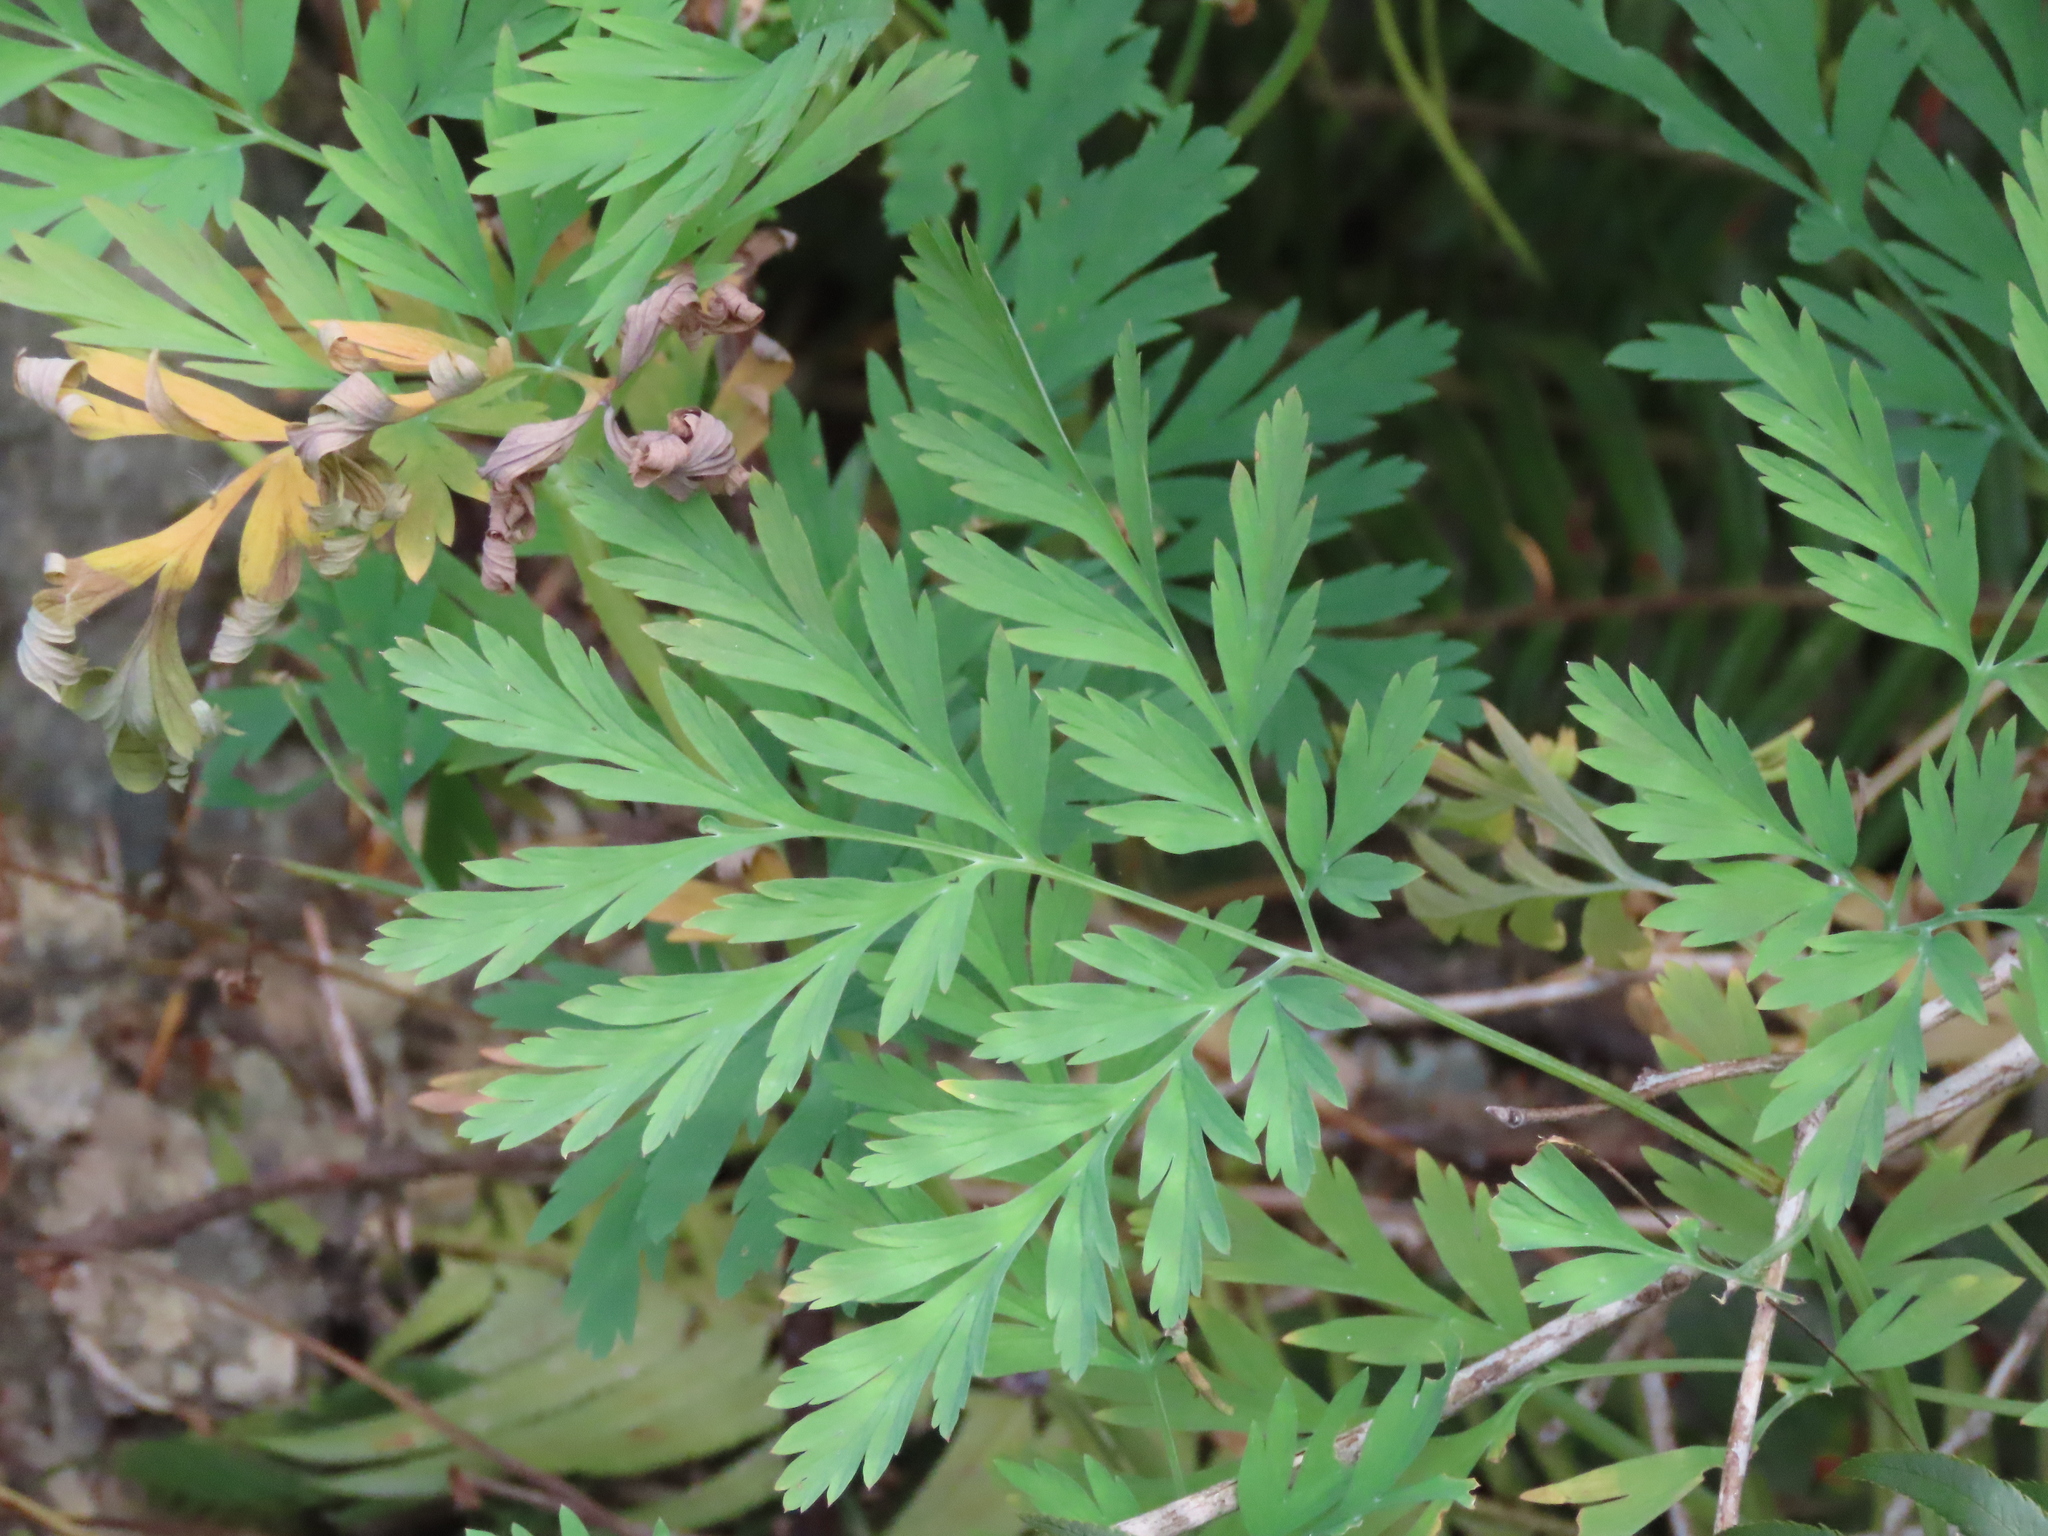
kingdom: Plantae
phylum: Tracheophyta
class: Magnoliopsida
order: Ranunculales
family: Papaveraceae
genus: Dicentra
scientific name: Dicentra formosa
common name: Bleeding-heart
